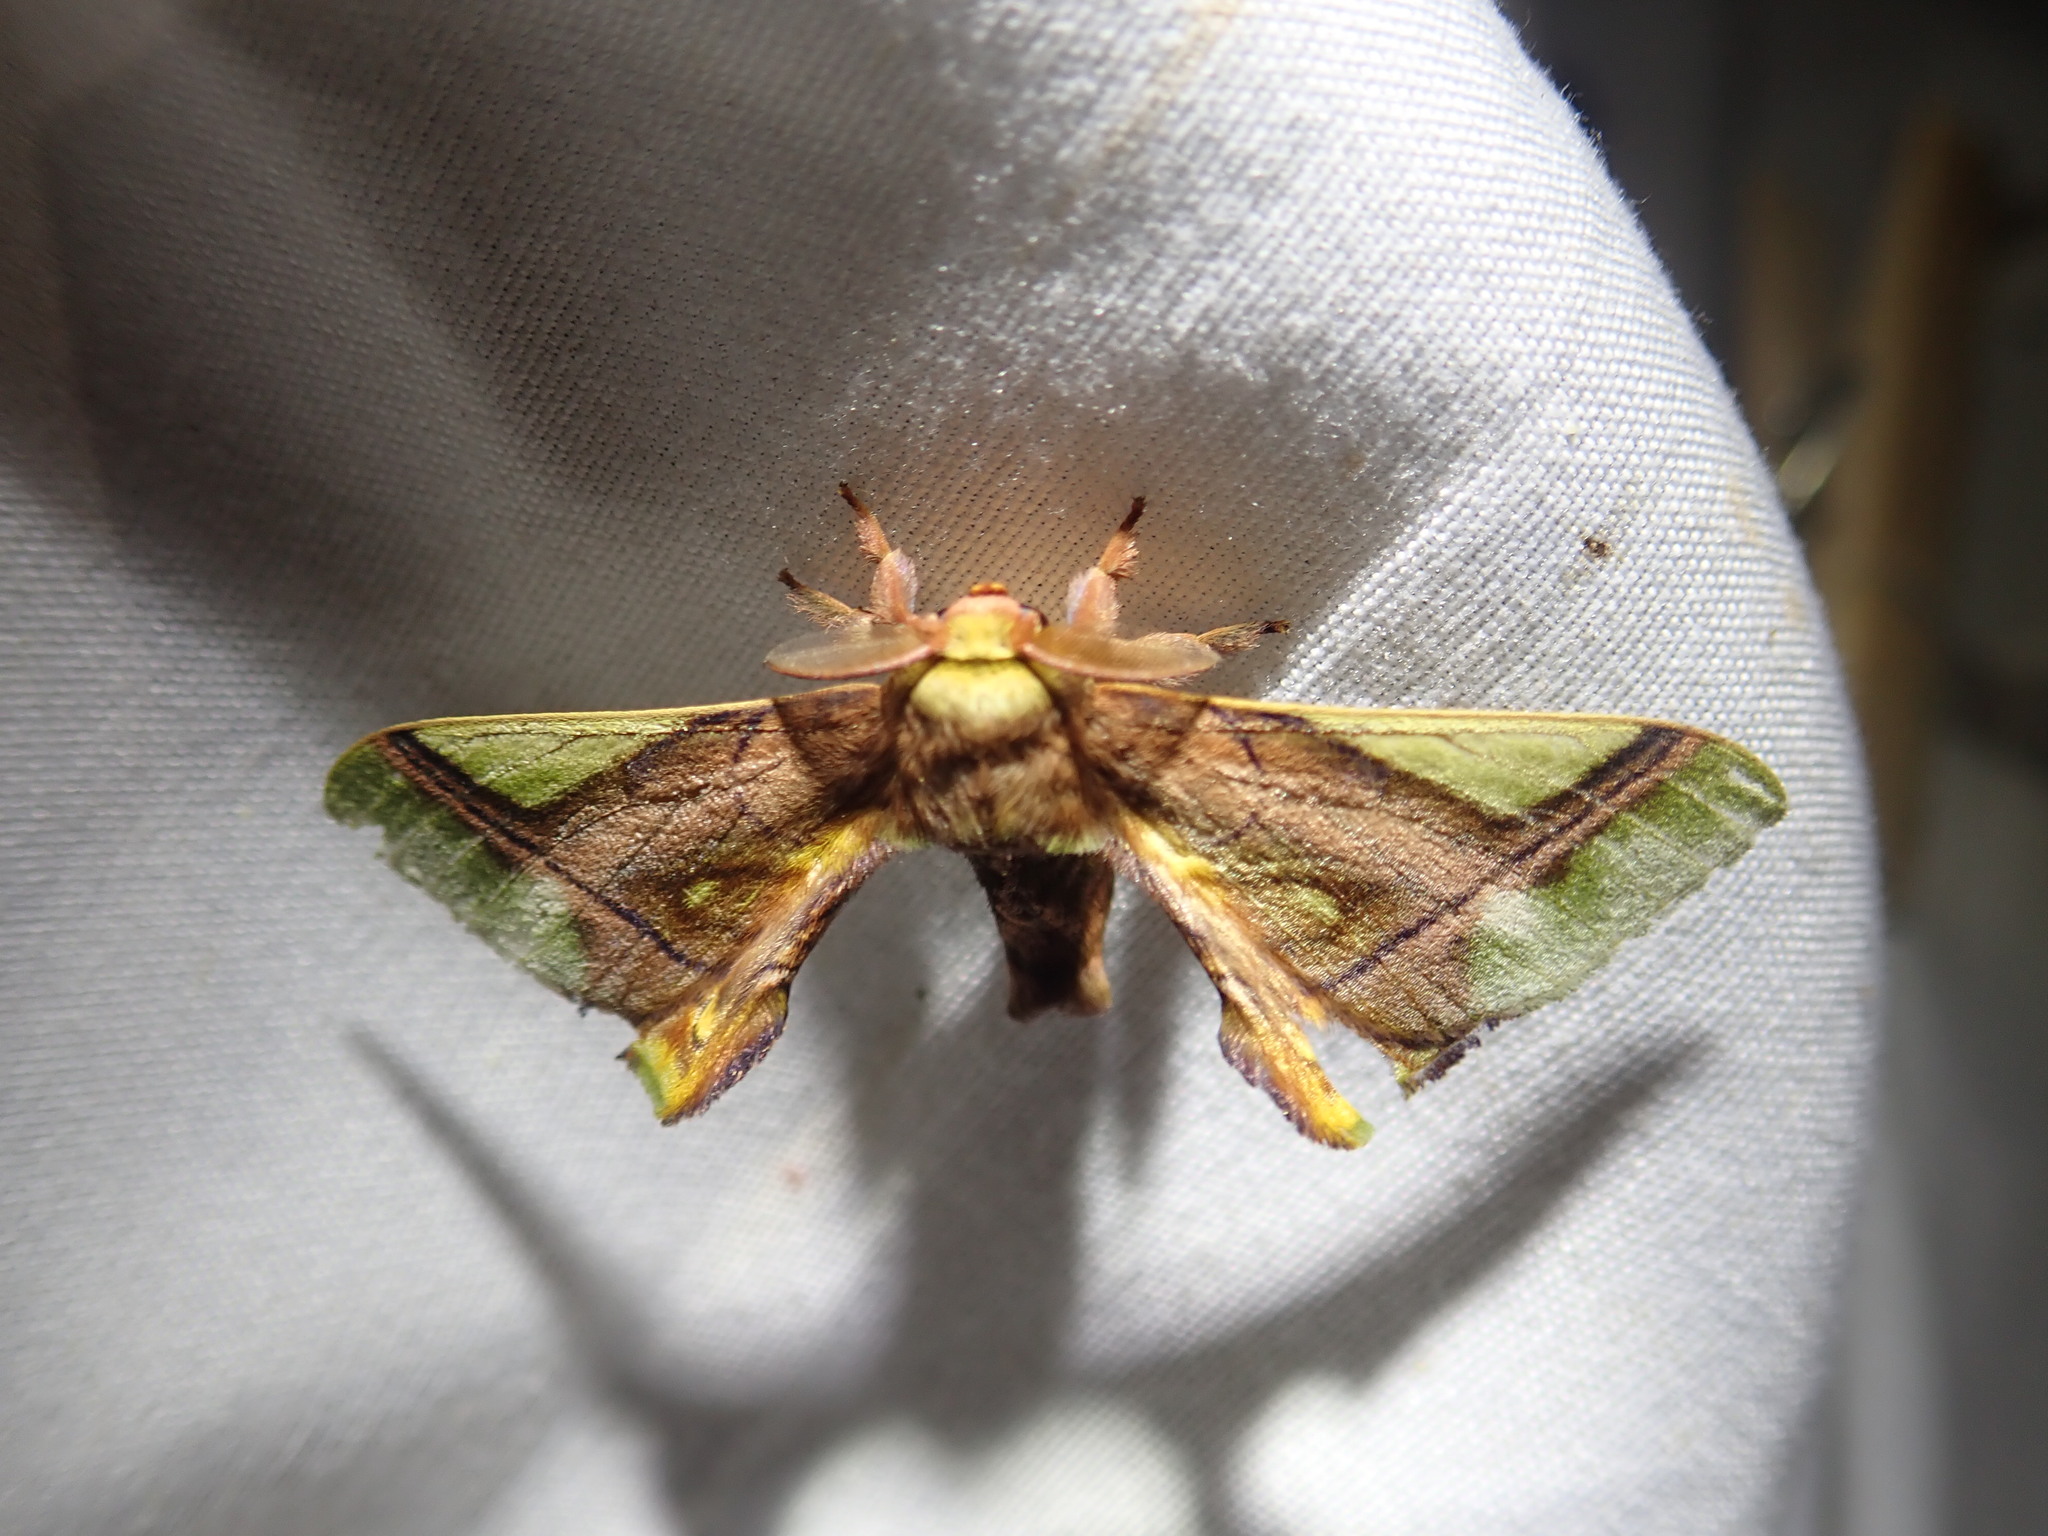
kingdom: Animalia
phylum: Arthropoda
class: Insecta
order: Lepidoptera
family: Bombycidae
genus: Epia
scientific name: Epia muscosa
